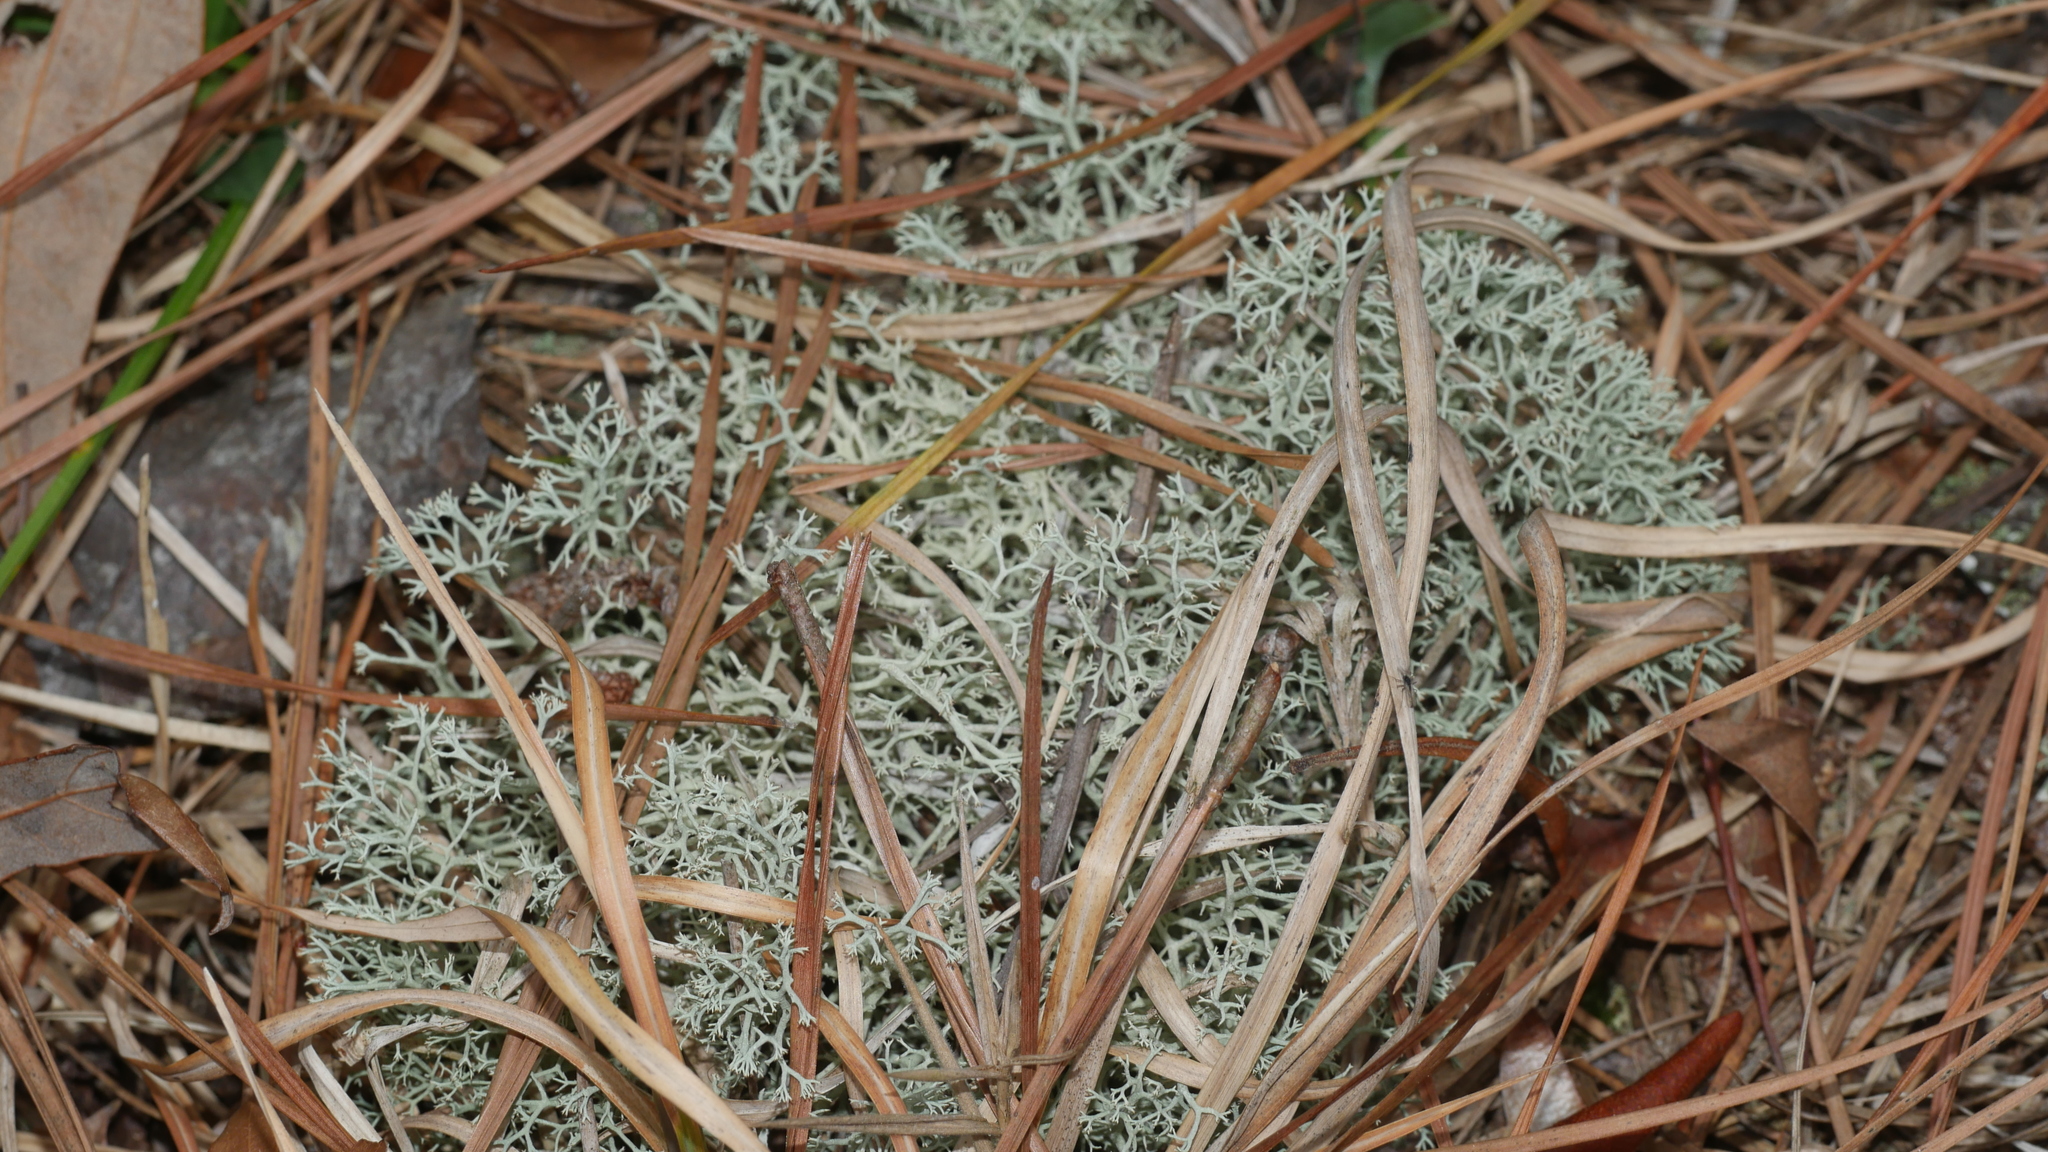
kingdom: Fungi
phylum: Ascomycota
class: Lecanoromycetes
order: Lecanorales
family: Cladoniaceae
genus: Cladonia
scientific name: Cladonia subtenuis
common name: Dixie reindeer lichen
